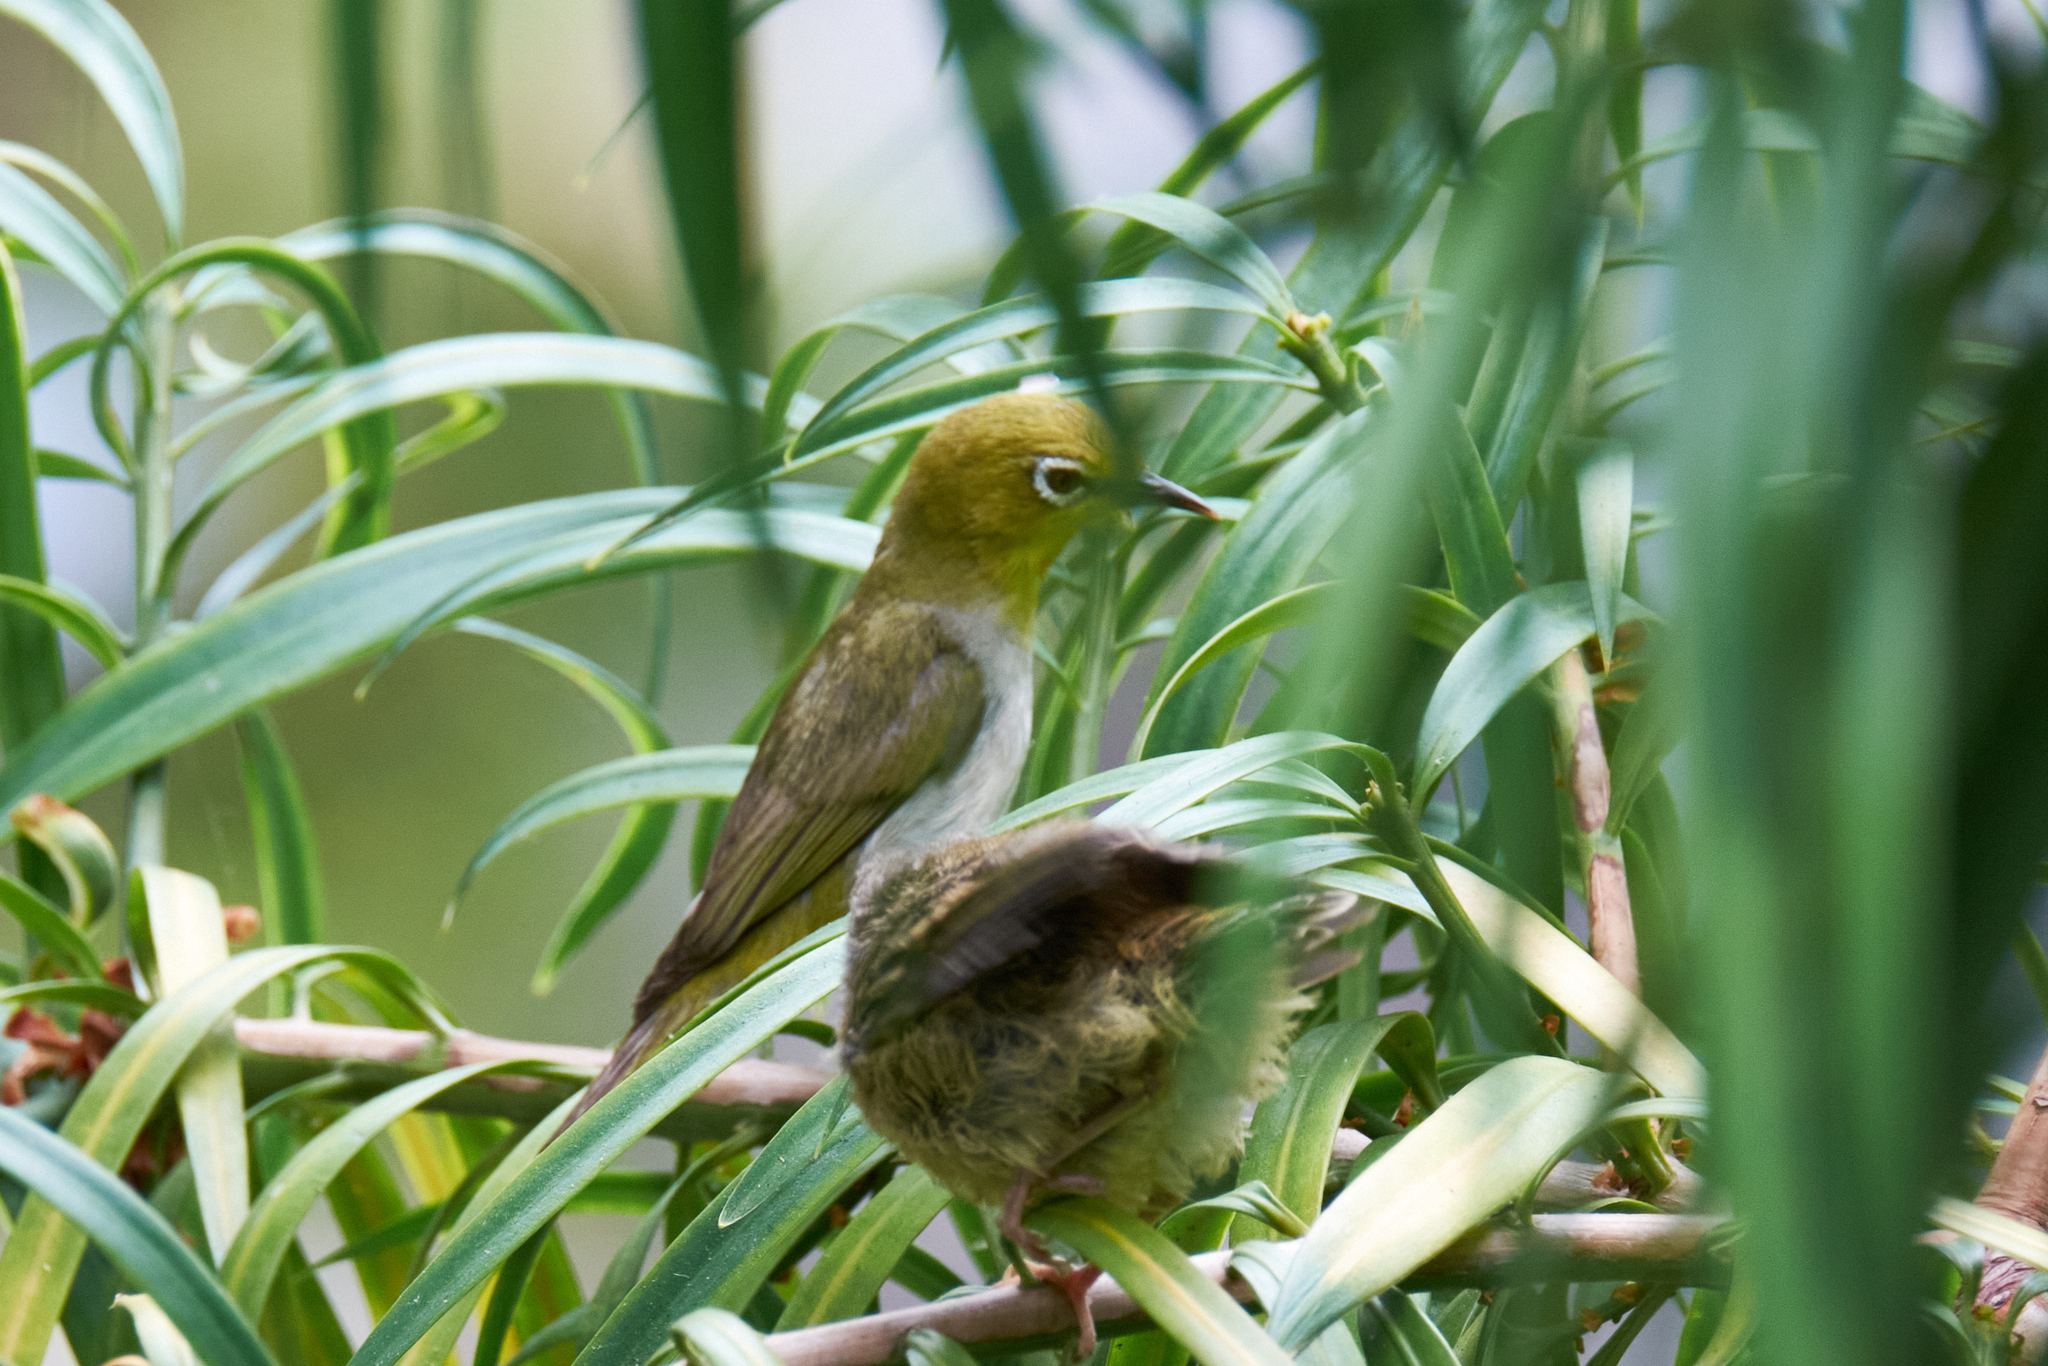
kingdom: Animalia
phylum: Chordata
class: Aves
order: Passeriformes
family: Zosteropidae
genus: Zosterops
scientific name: Zosterops simplex
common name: Swinhoe's white-eye
